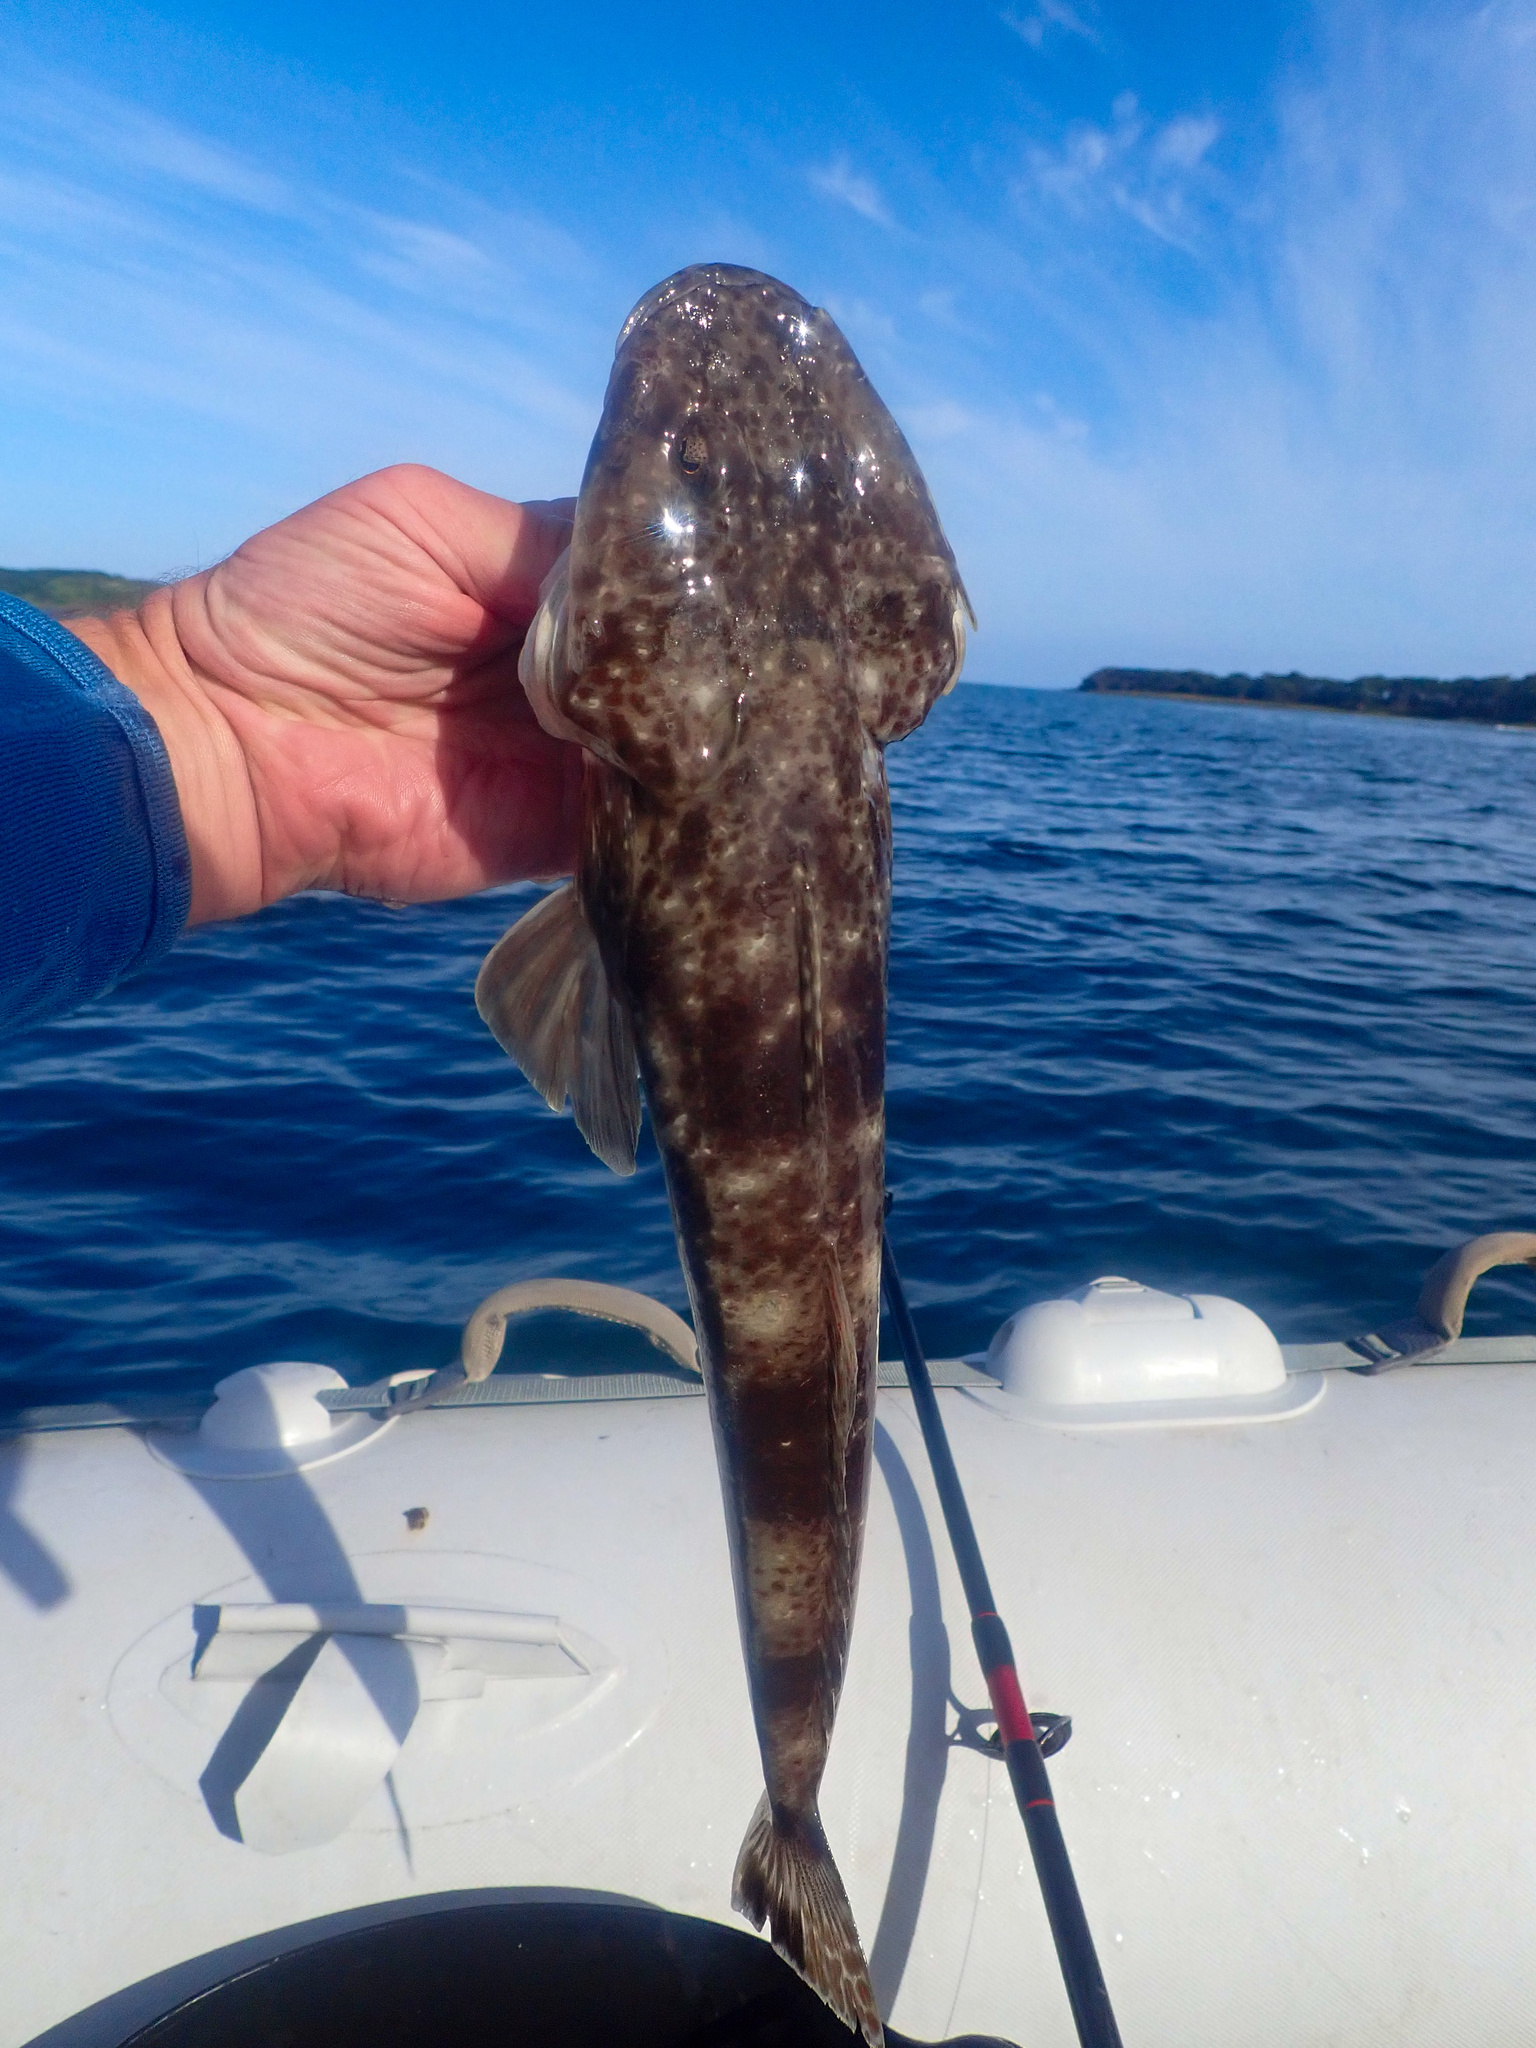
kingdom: Animalia
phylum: Chordata
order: Scorpaeniformes
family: Platycephalidae
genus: Platycephalus
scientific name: Platycephalus bassensis
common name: Sand flathead
